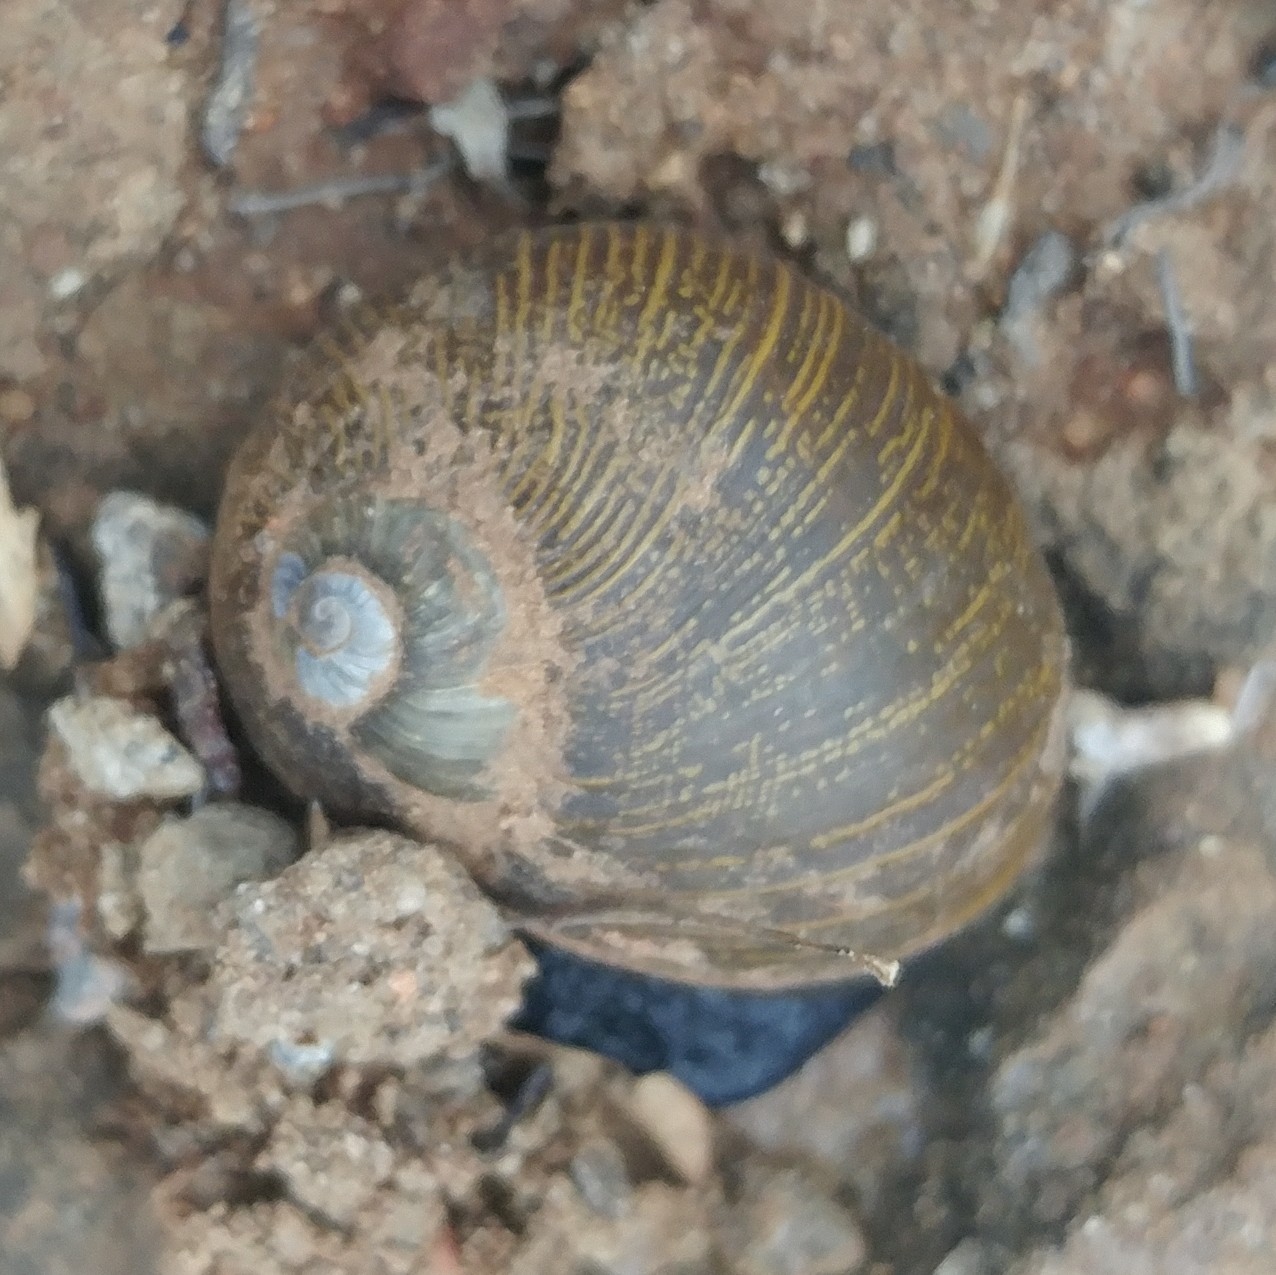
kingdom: Animalia
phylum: Mollusca
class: Gastropoda
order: Stylommatophora
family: Helicidae
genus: Cantareus
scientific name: Cantareus apertus
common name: Green gardensnail
